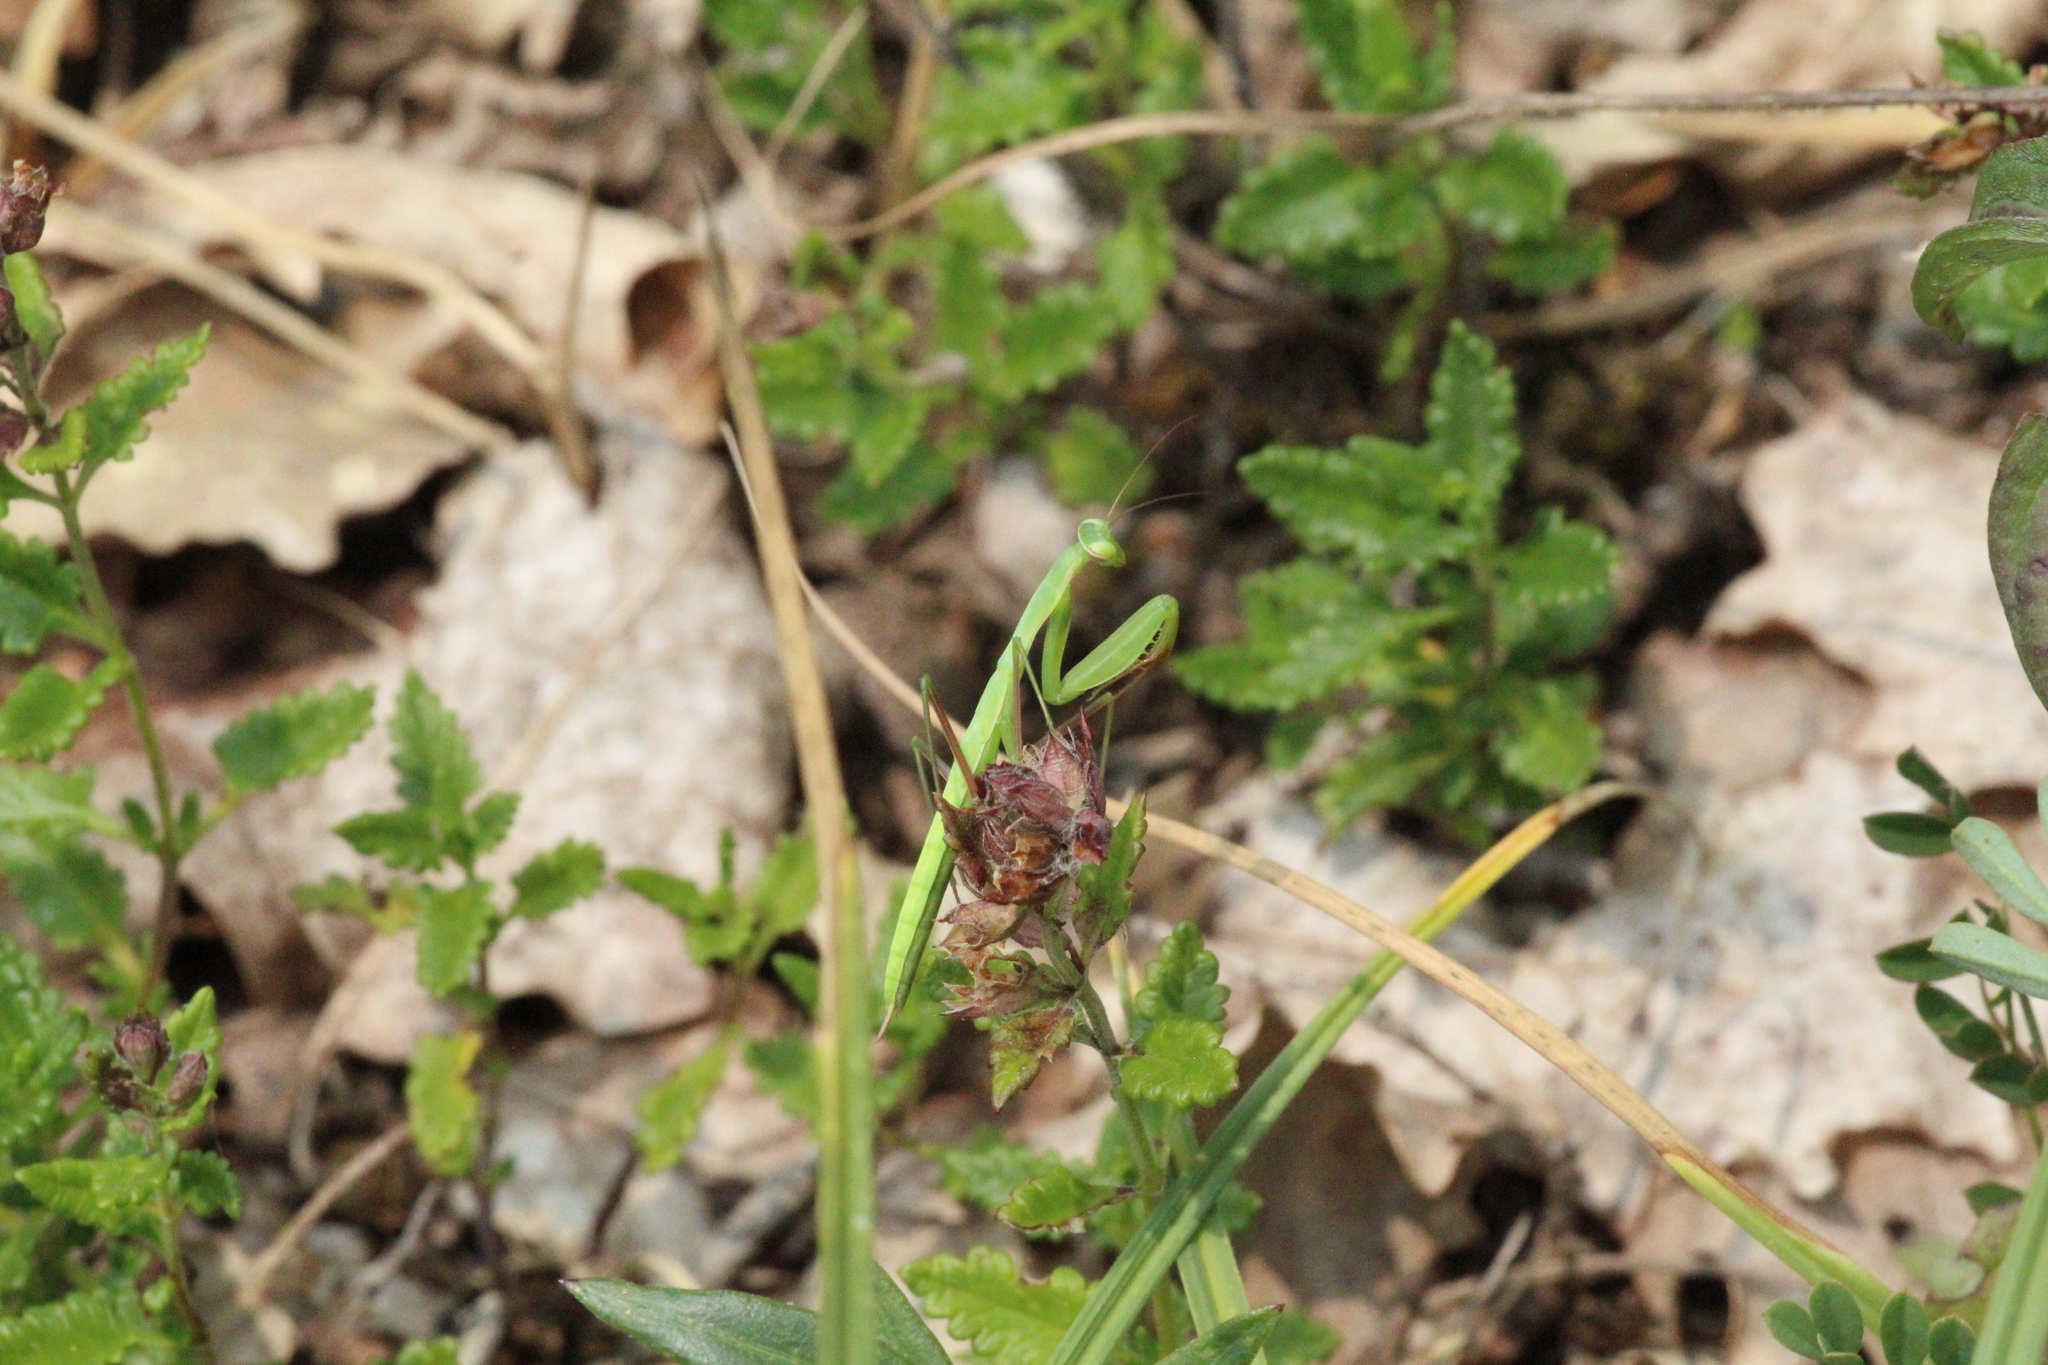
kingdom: Animalia
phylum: Arthropoda
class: Insecta
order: Mantodea
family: Mantidae
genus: Mantis
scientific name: Mantis religiosa
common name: Praying mantis
